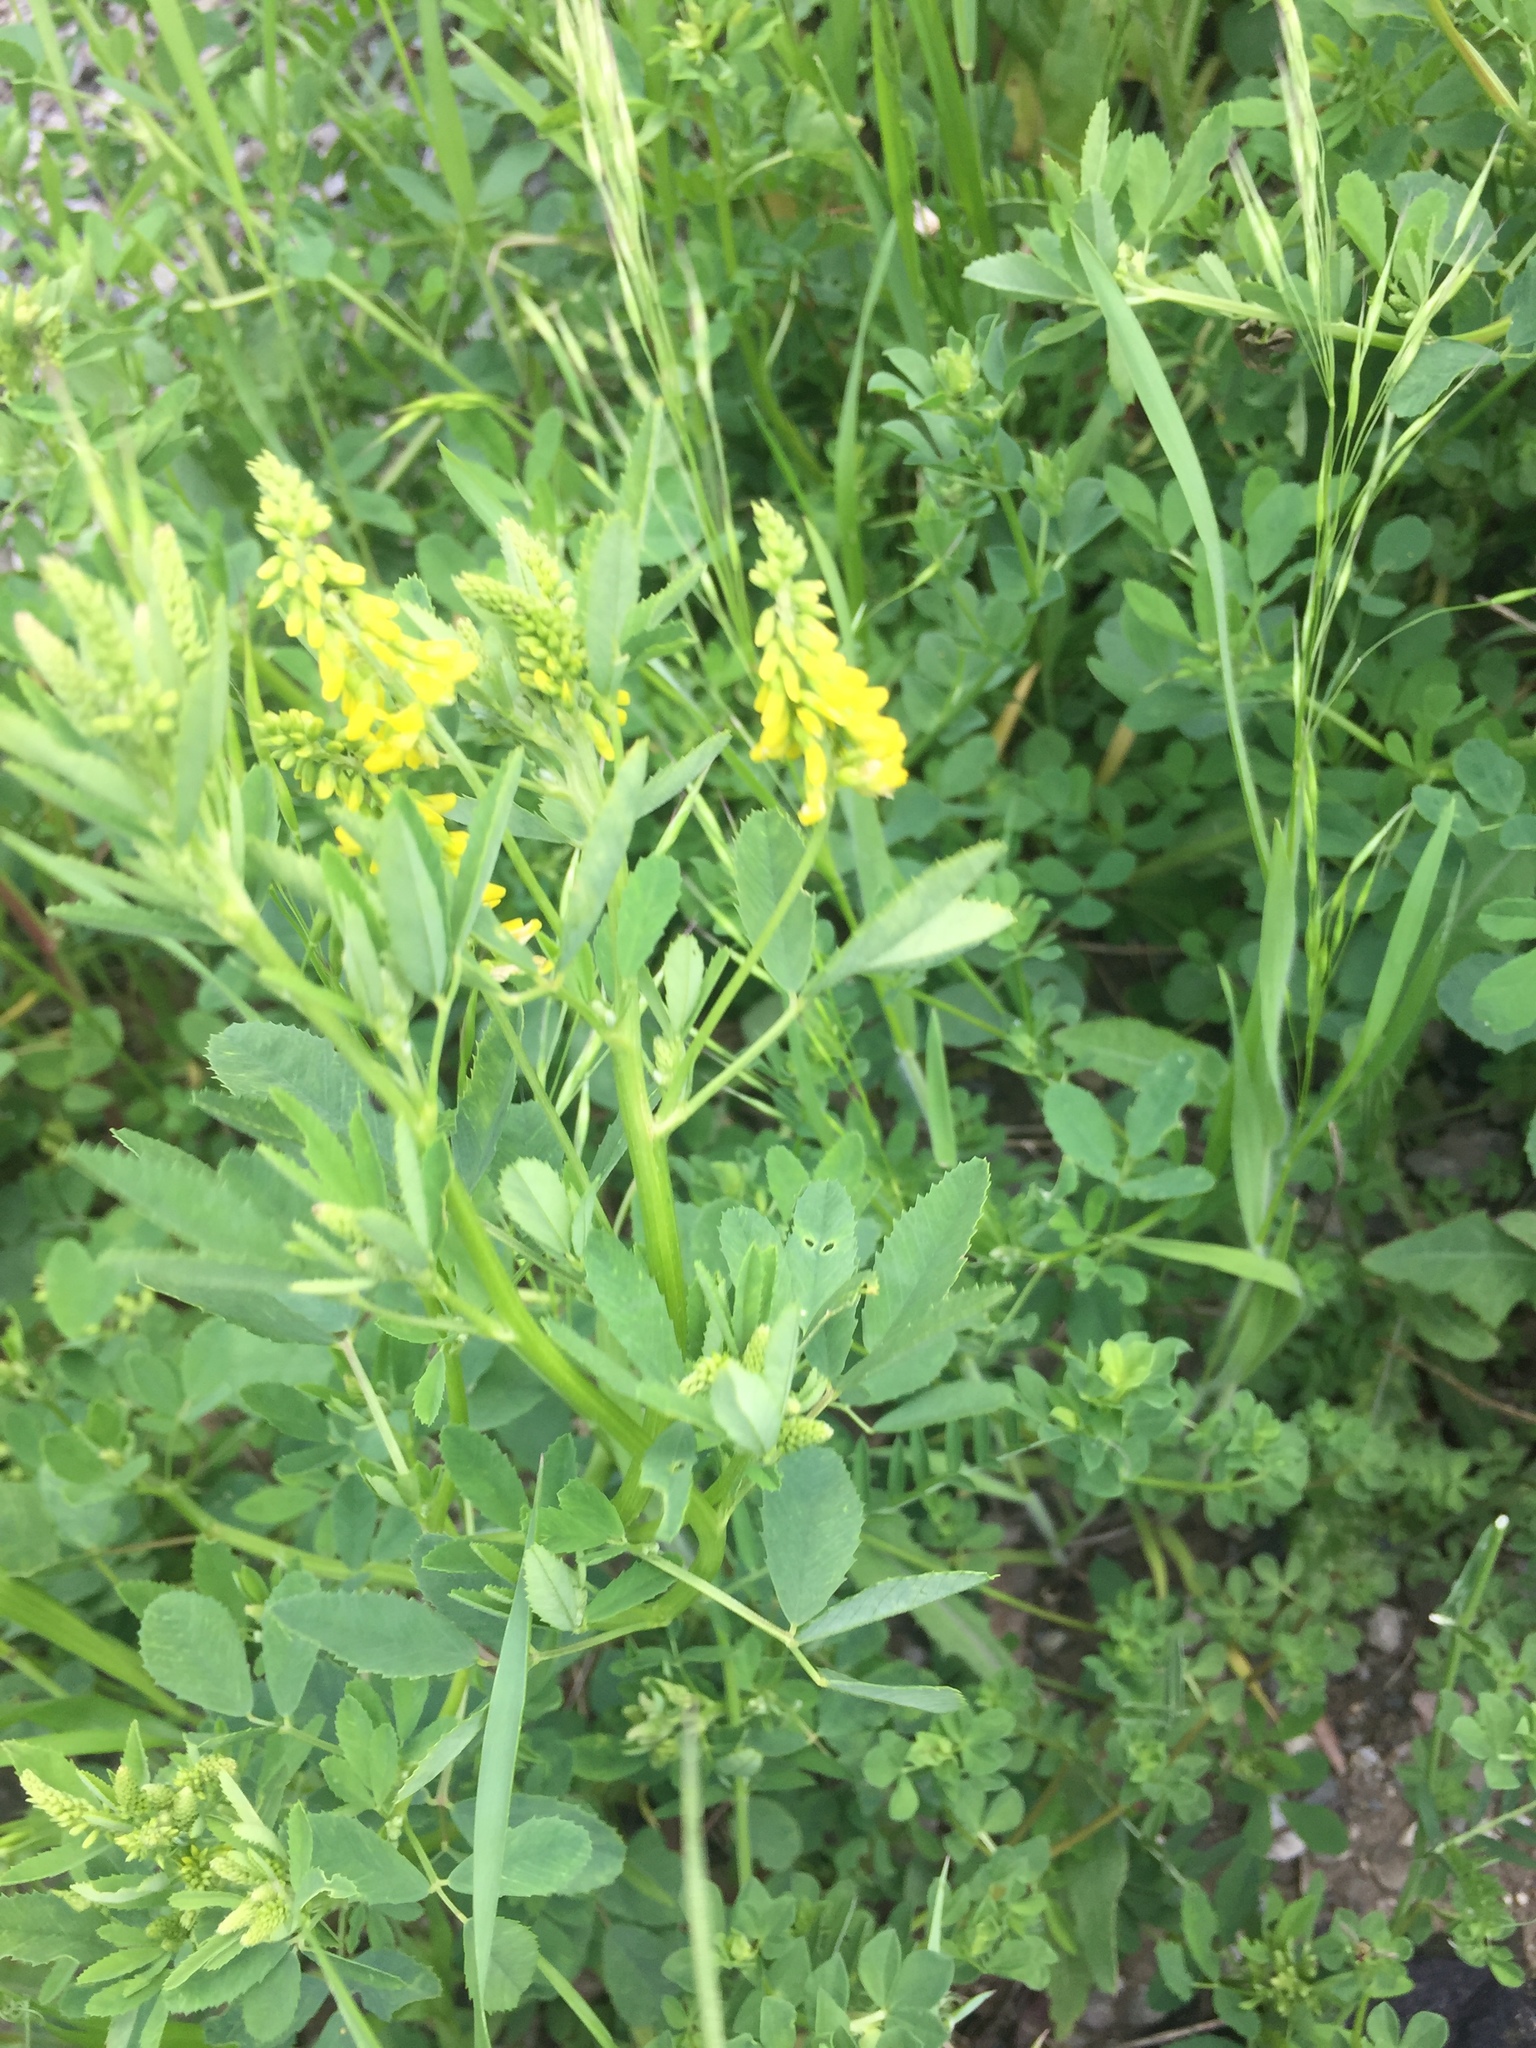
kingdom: Plantae
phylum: Tracheophyta
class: Magnoliopsida
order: Fabales
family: Fabaceae
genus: Melilotus
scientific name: Melilotus officinalis
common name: Sweetclover
